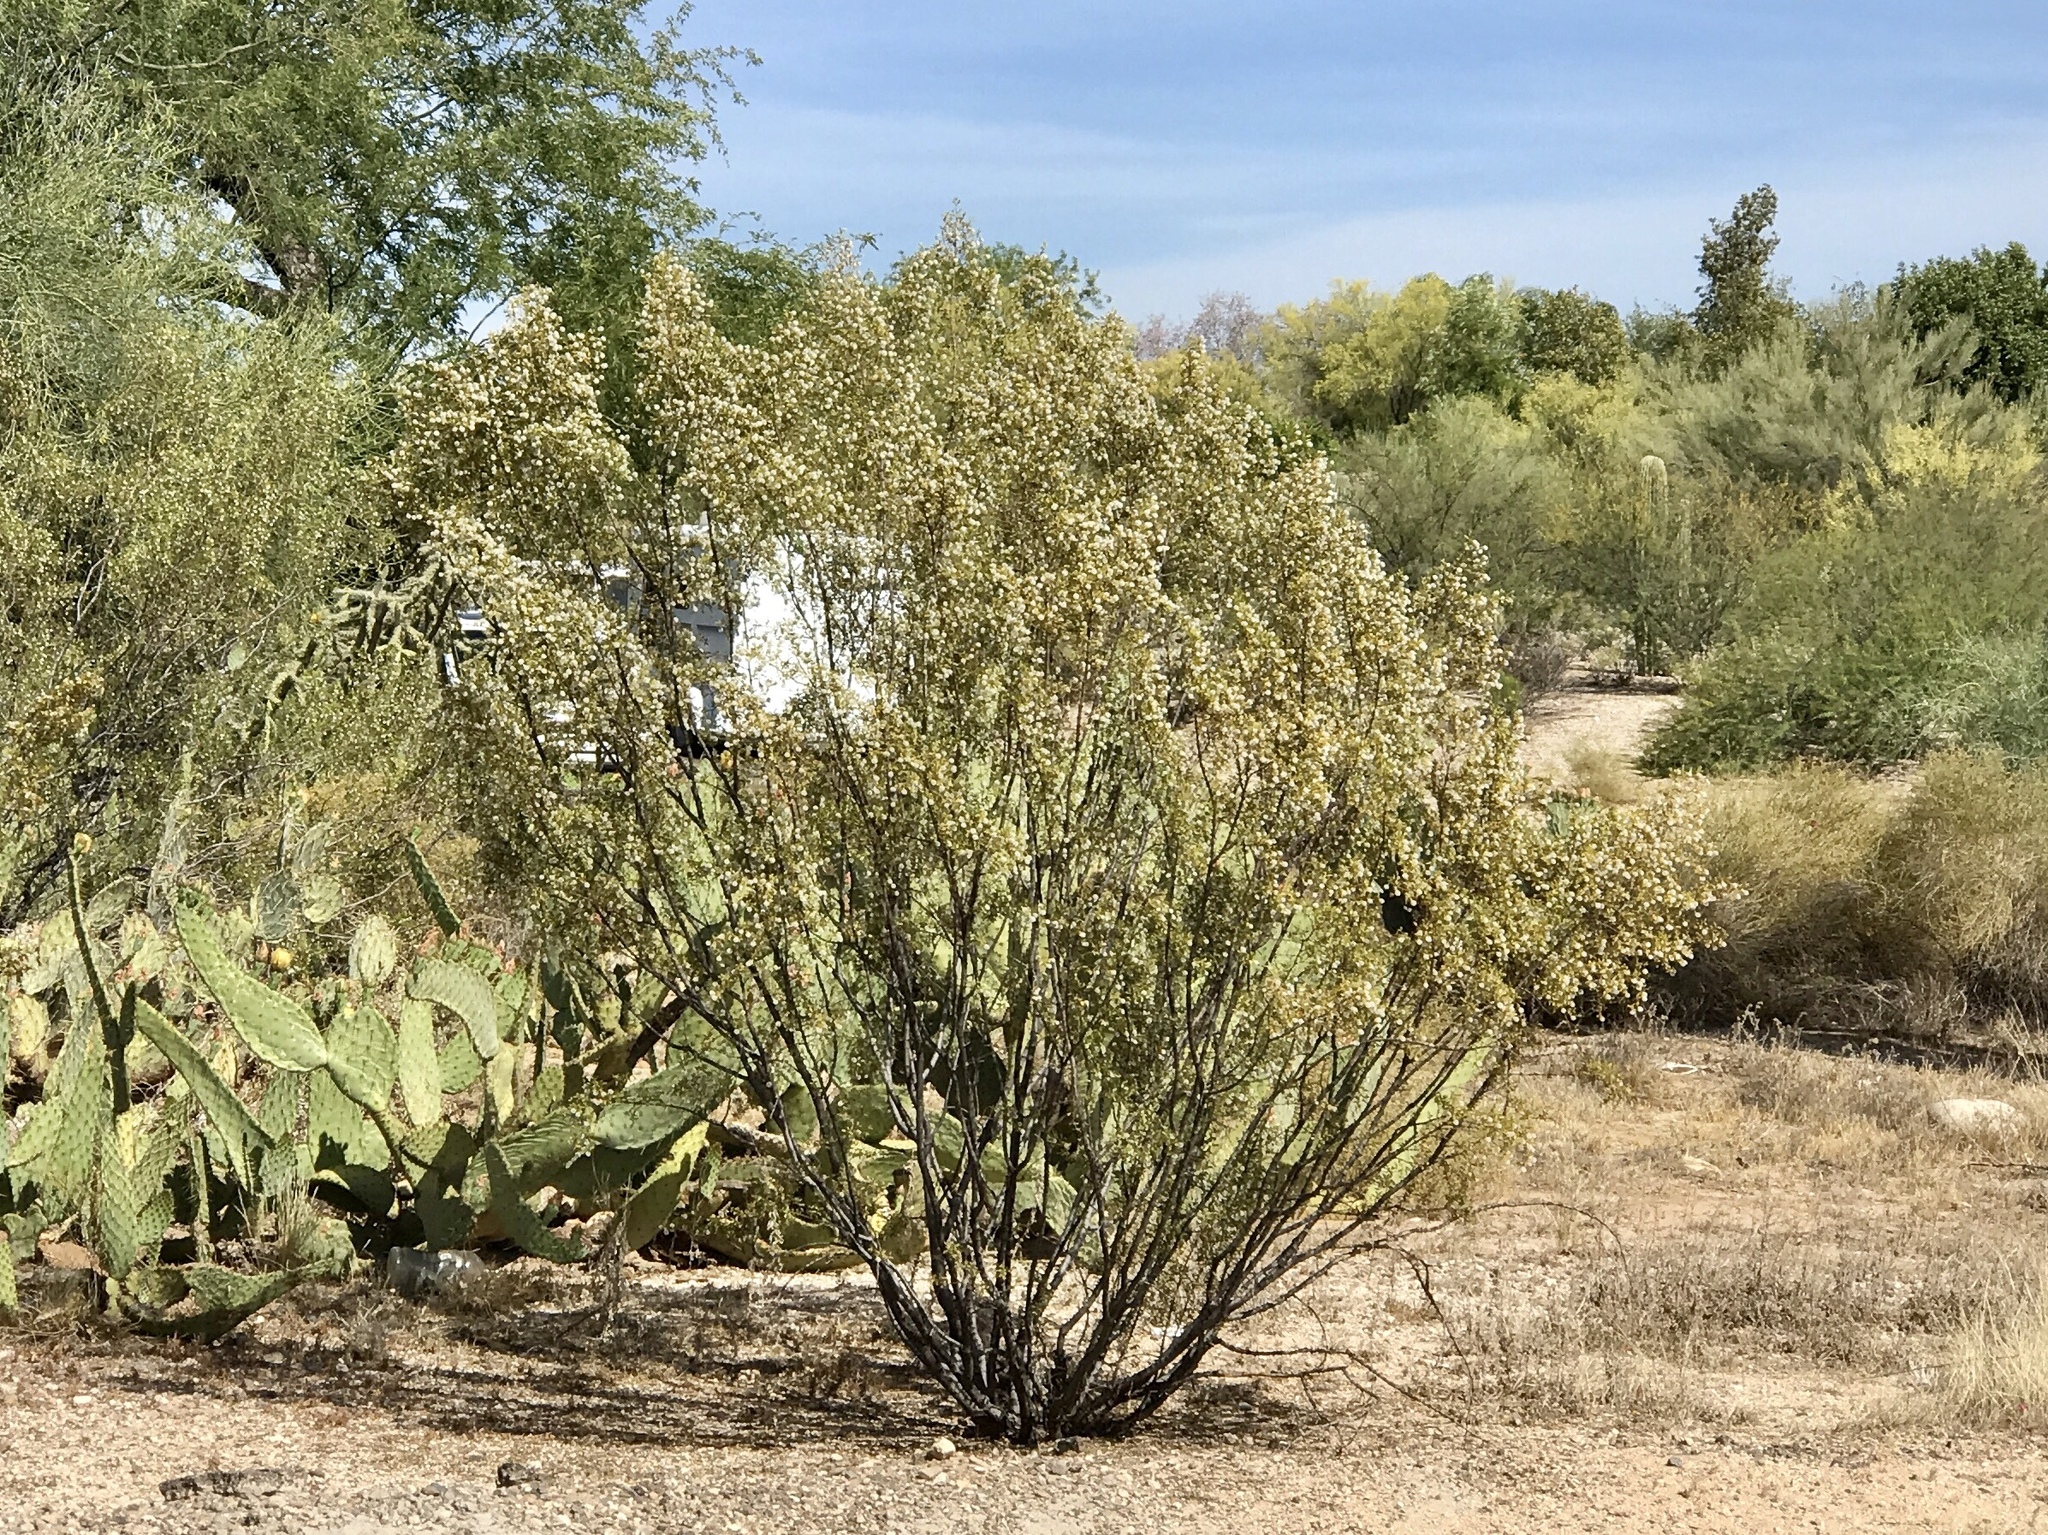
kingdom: Plantae
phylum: Tracheophyta
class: Magnoliopsida
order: Zygophyllales
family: Zygophyllaceae
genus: Larrea
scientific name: Larrea tridentata
